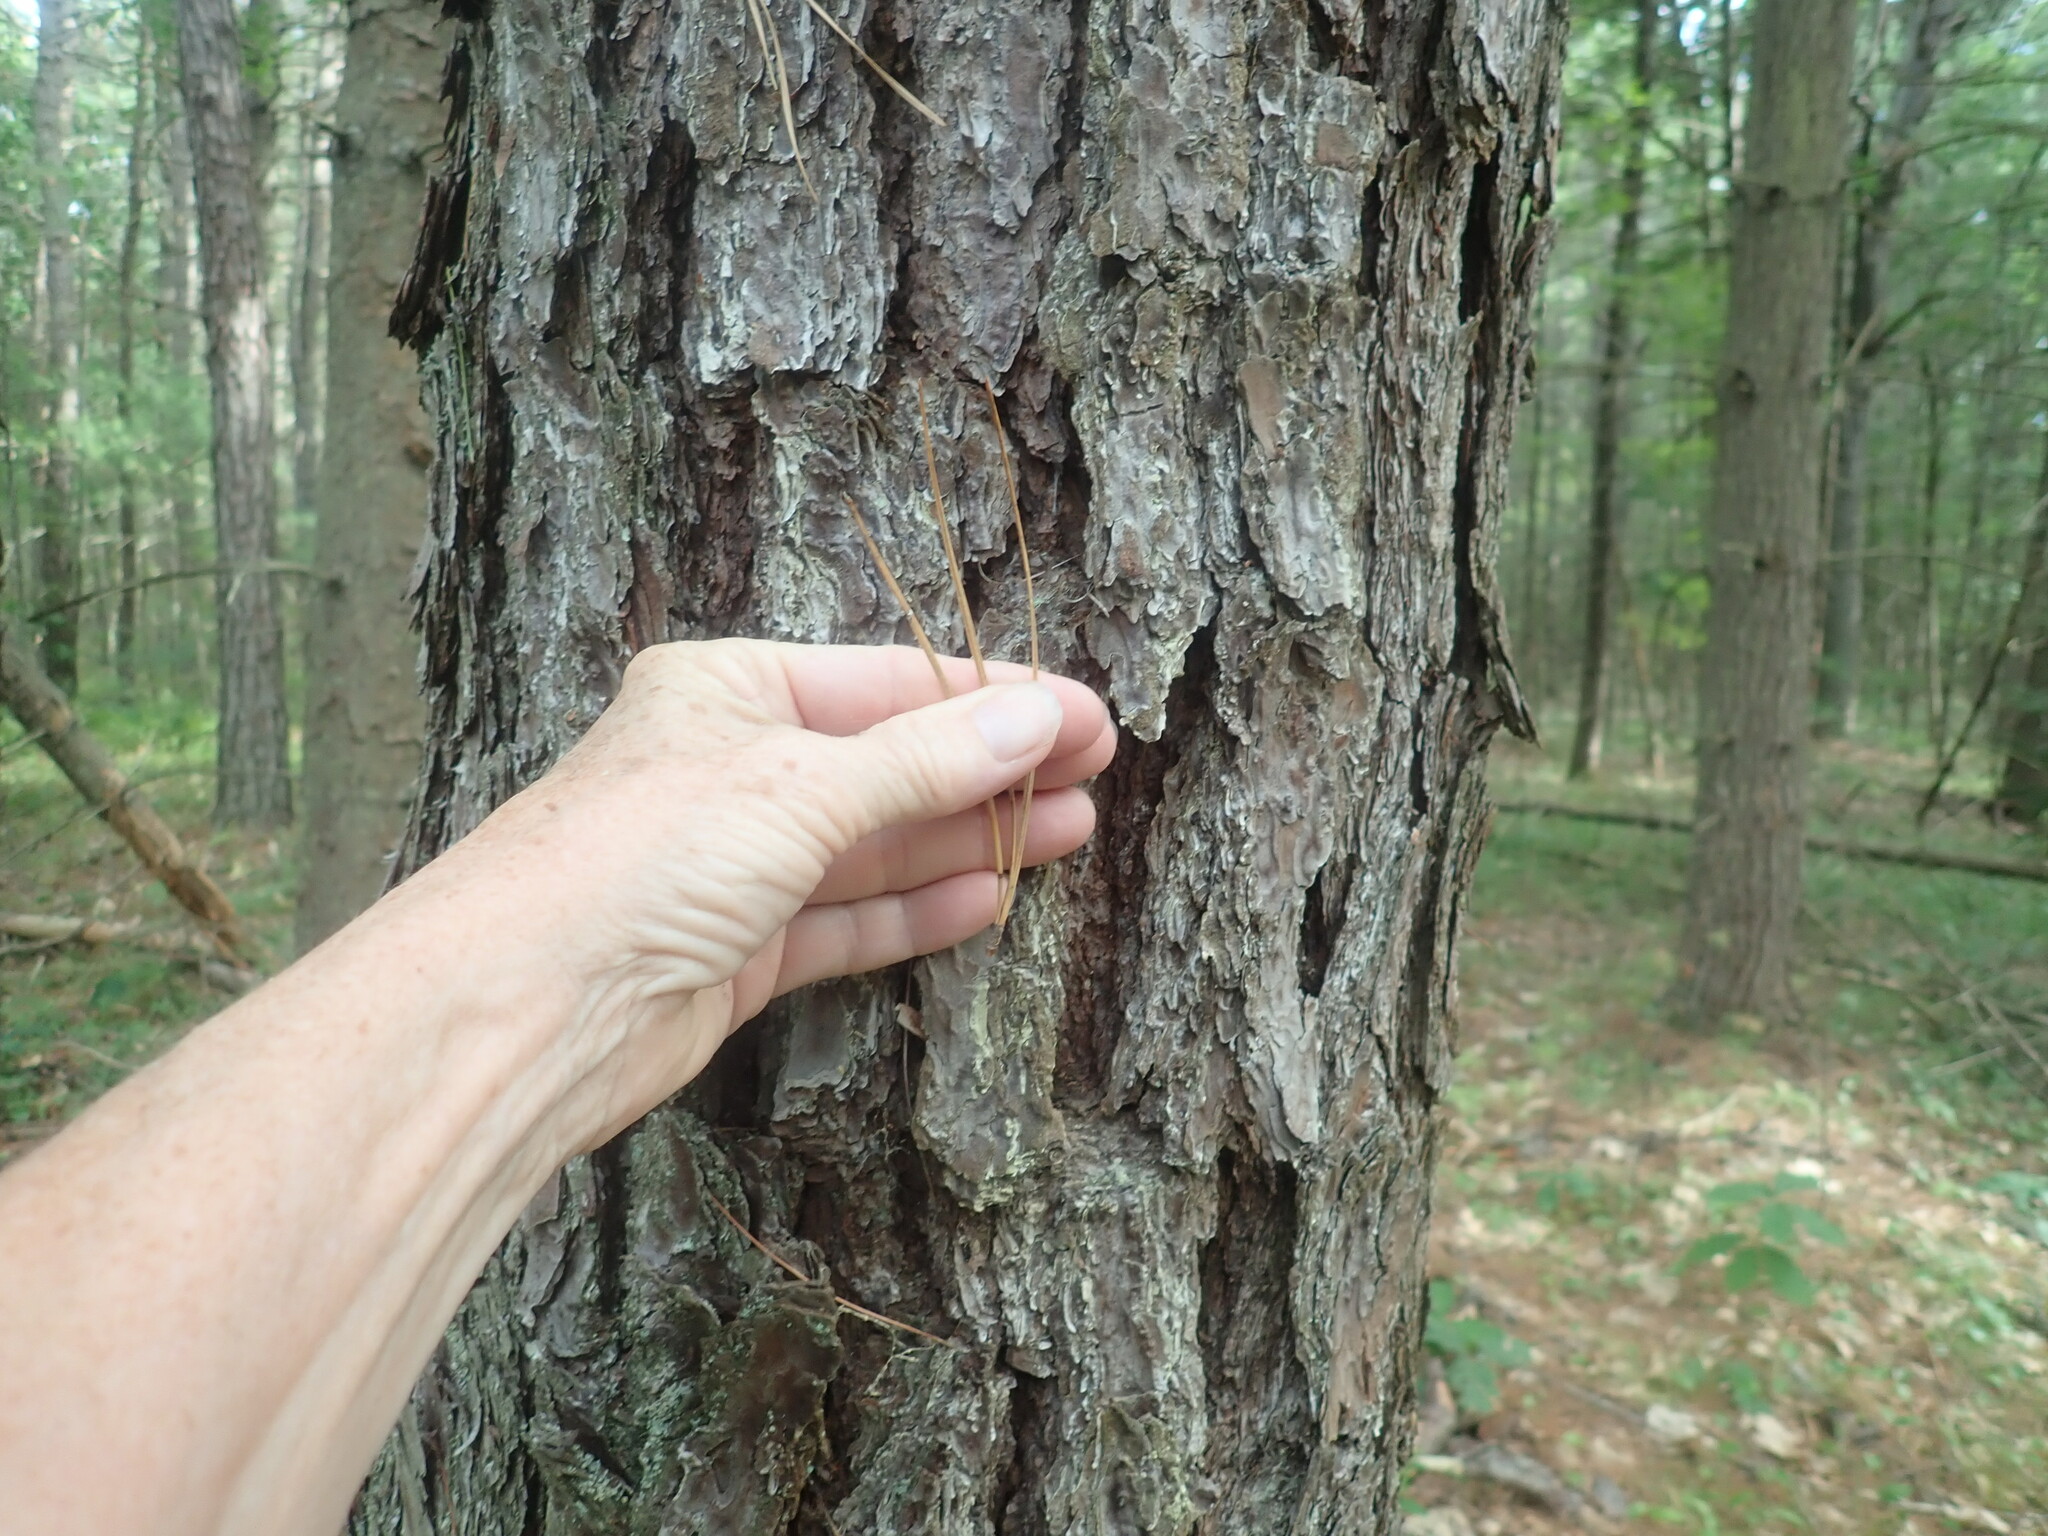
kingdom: Plantae
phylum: Tracheophyta
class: Pinopsida
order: Pinales
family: Pinaceae
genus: Pinus
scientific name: Pinus rigida
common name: Pitch pine
